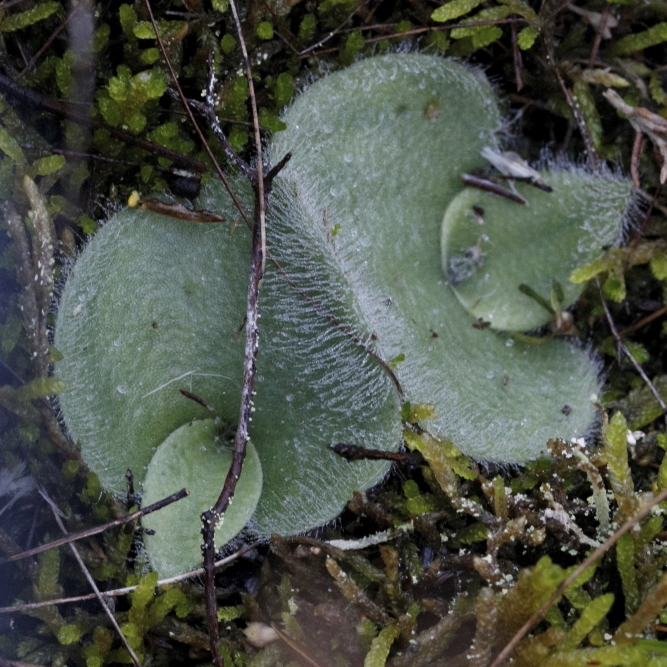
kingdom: Plantae
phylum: Tracheophyta
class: Liliopsida
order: Asparagales
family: Orchidaceae
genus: Holothrix
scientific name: Holothrix villosa
